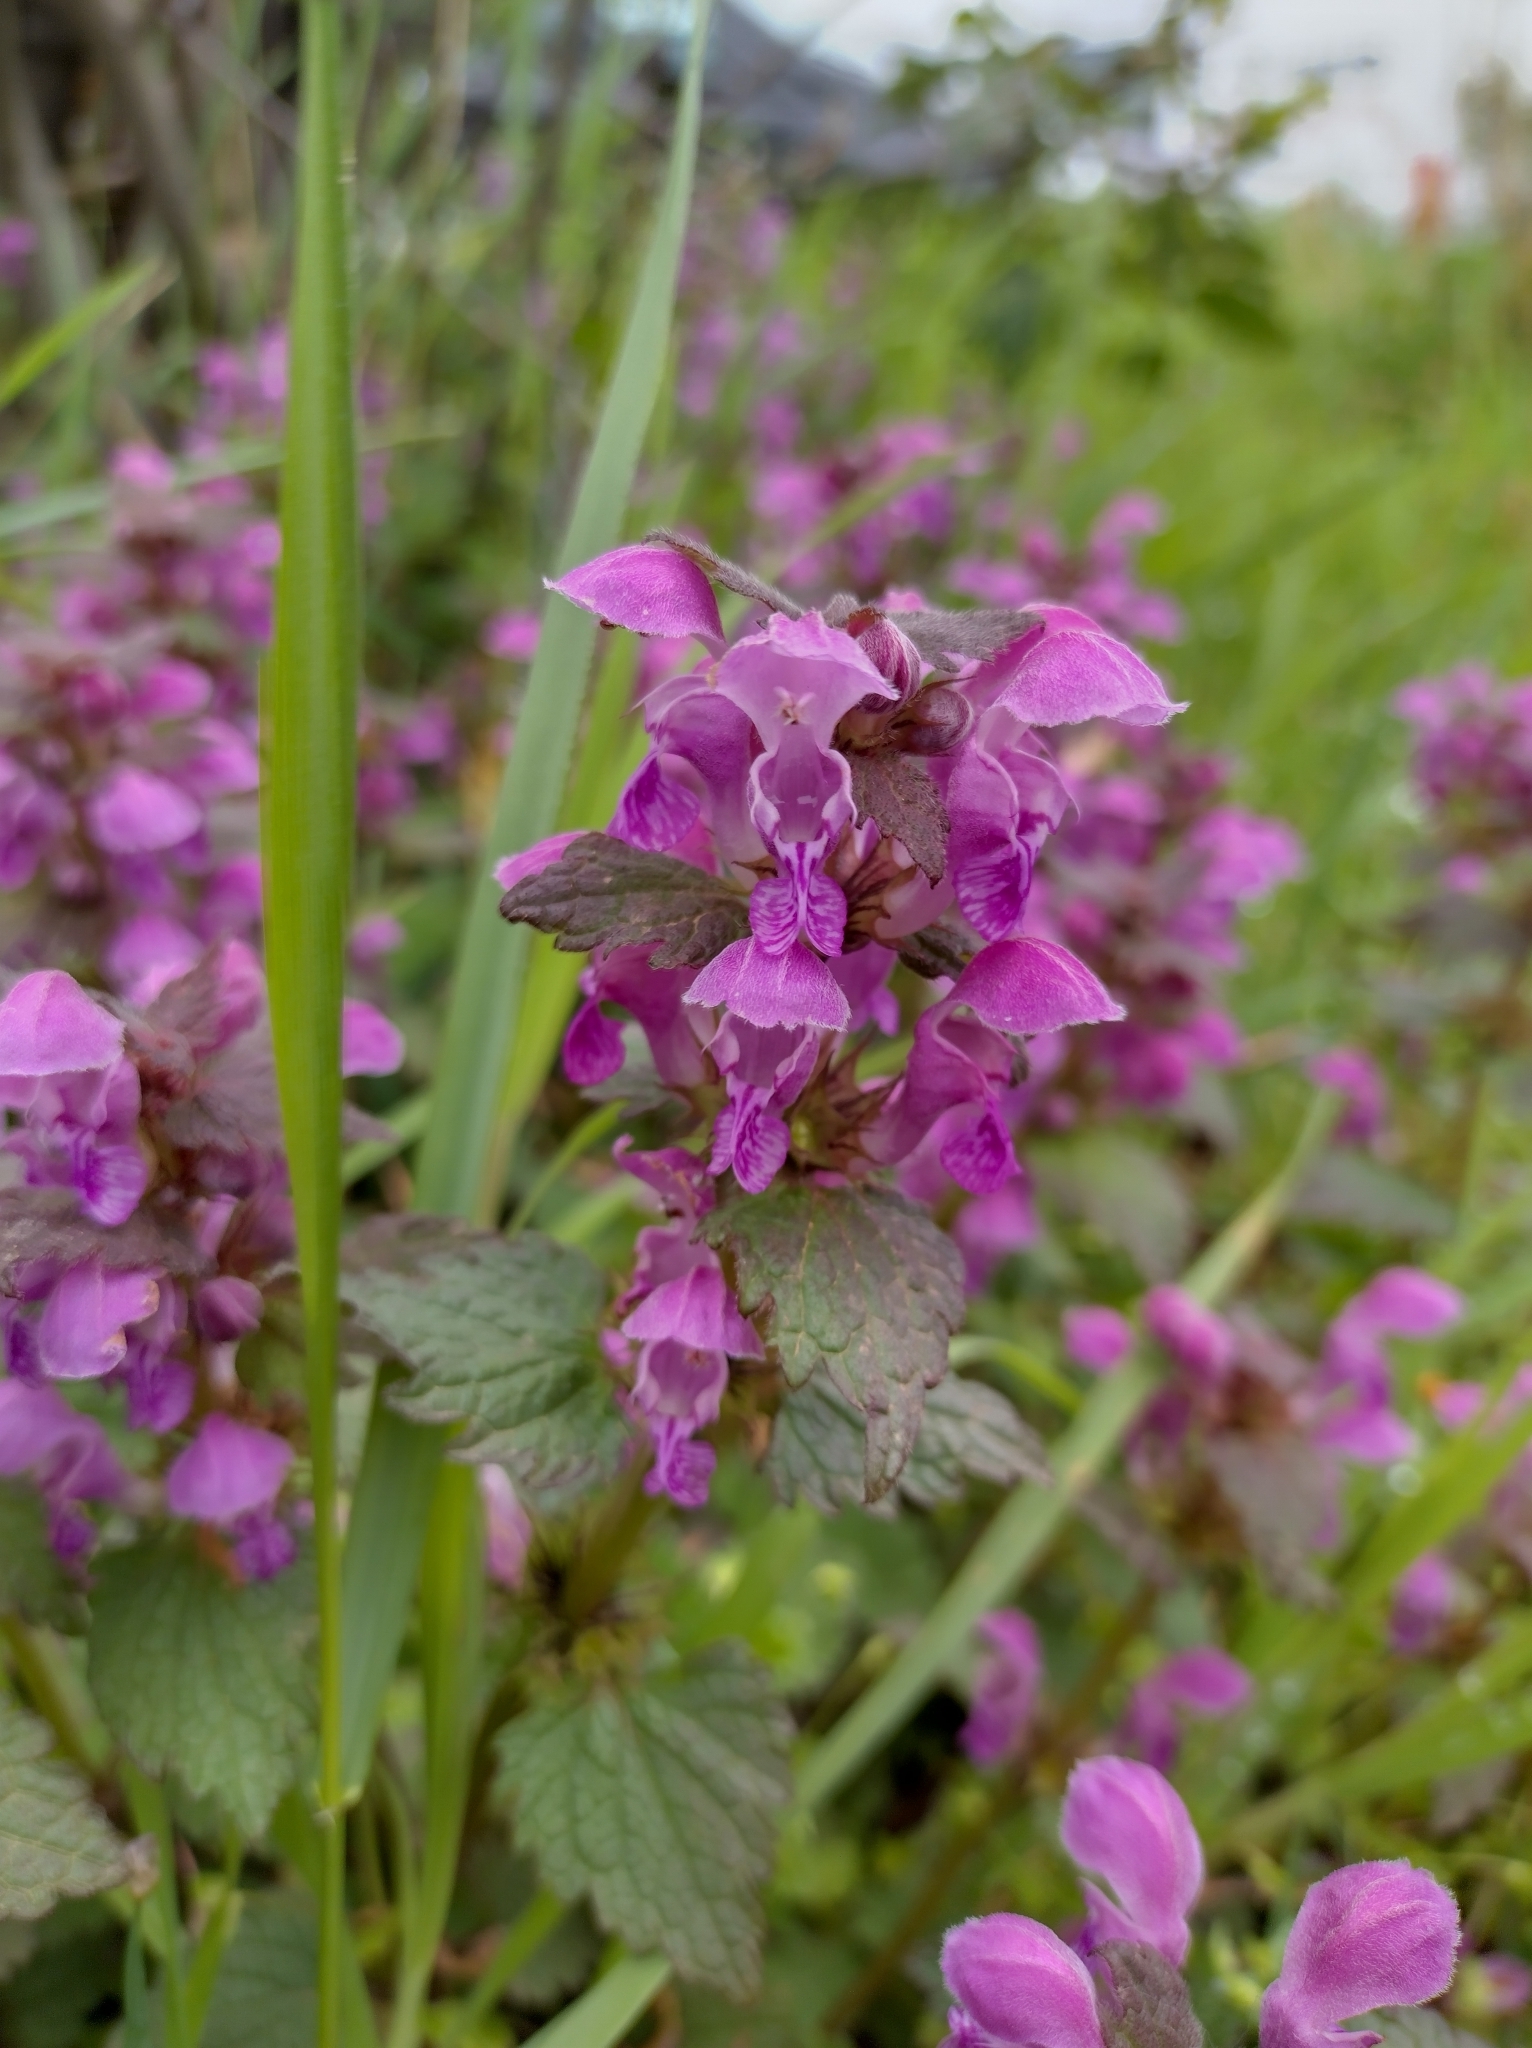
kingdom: Plantae
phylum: Tracheophyta
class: Magnoliopsida
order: Lamiales
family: Lamiaceae
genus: Lamium
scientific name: Lamium maculatum
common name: Spotted dead-nettle
